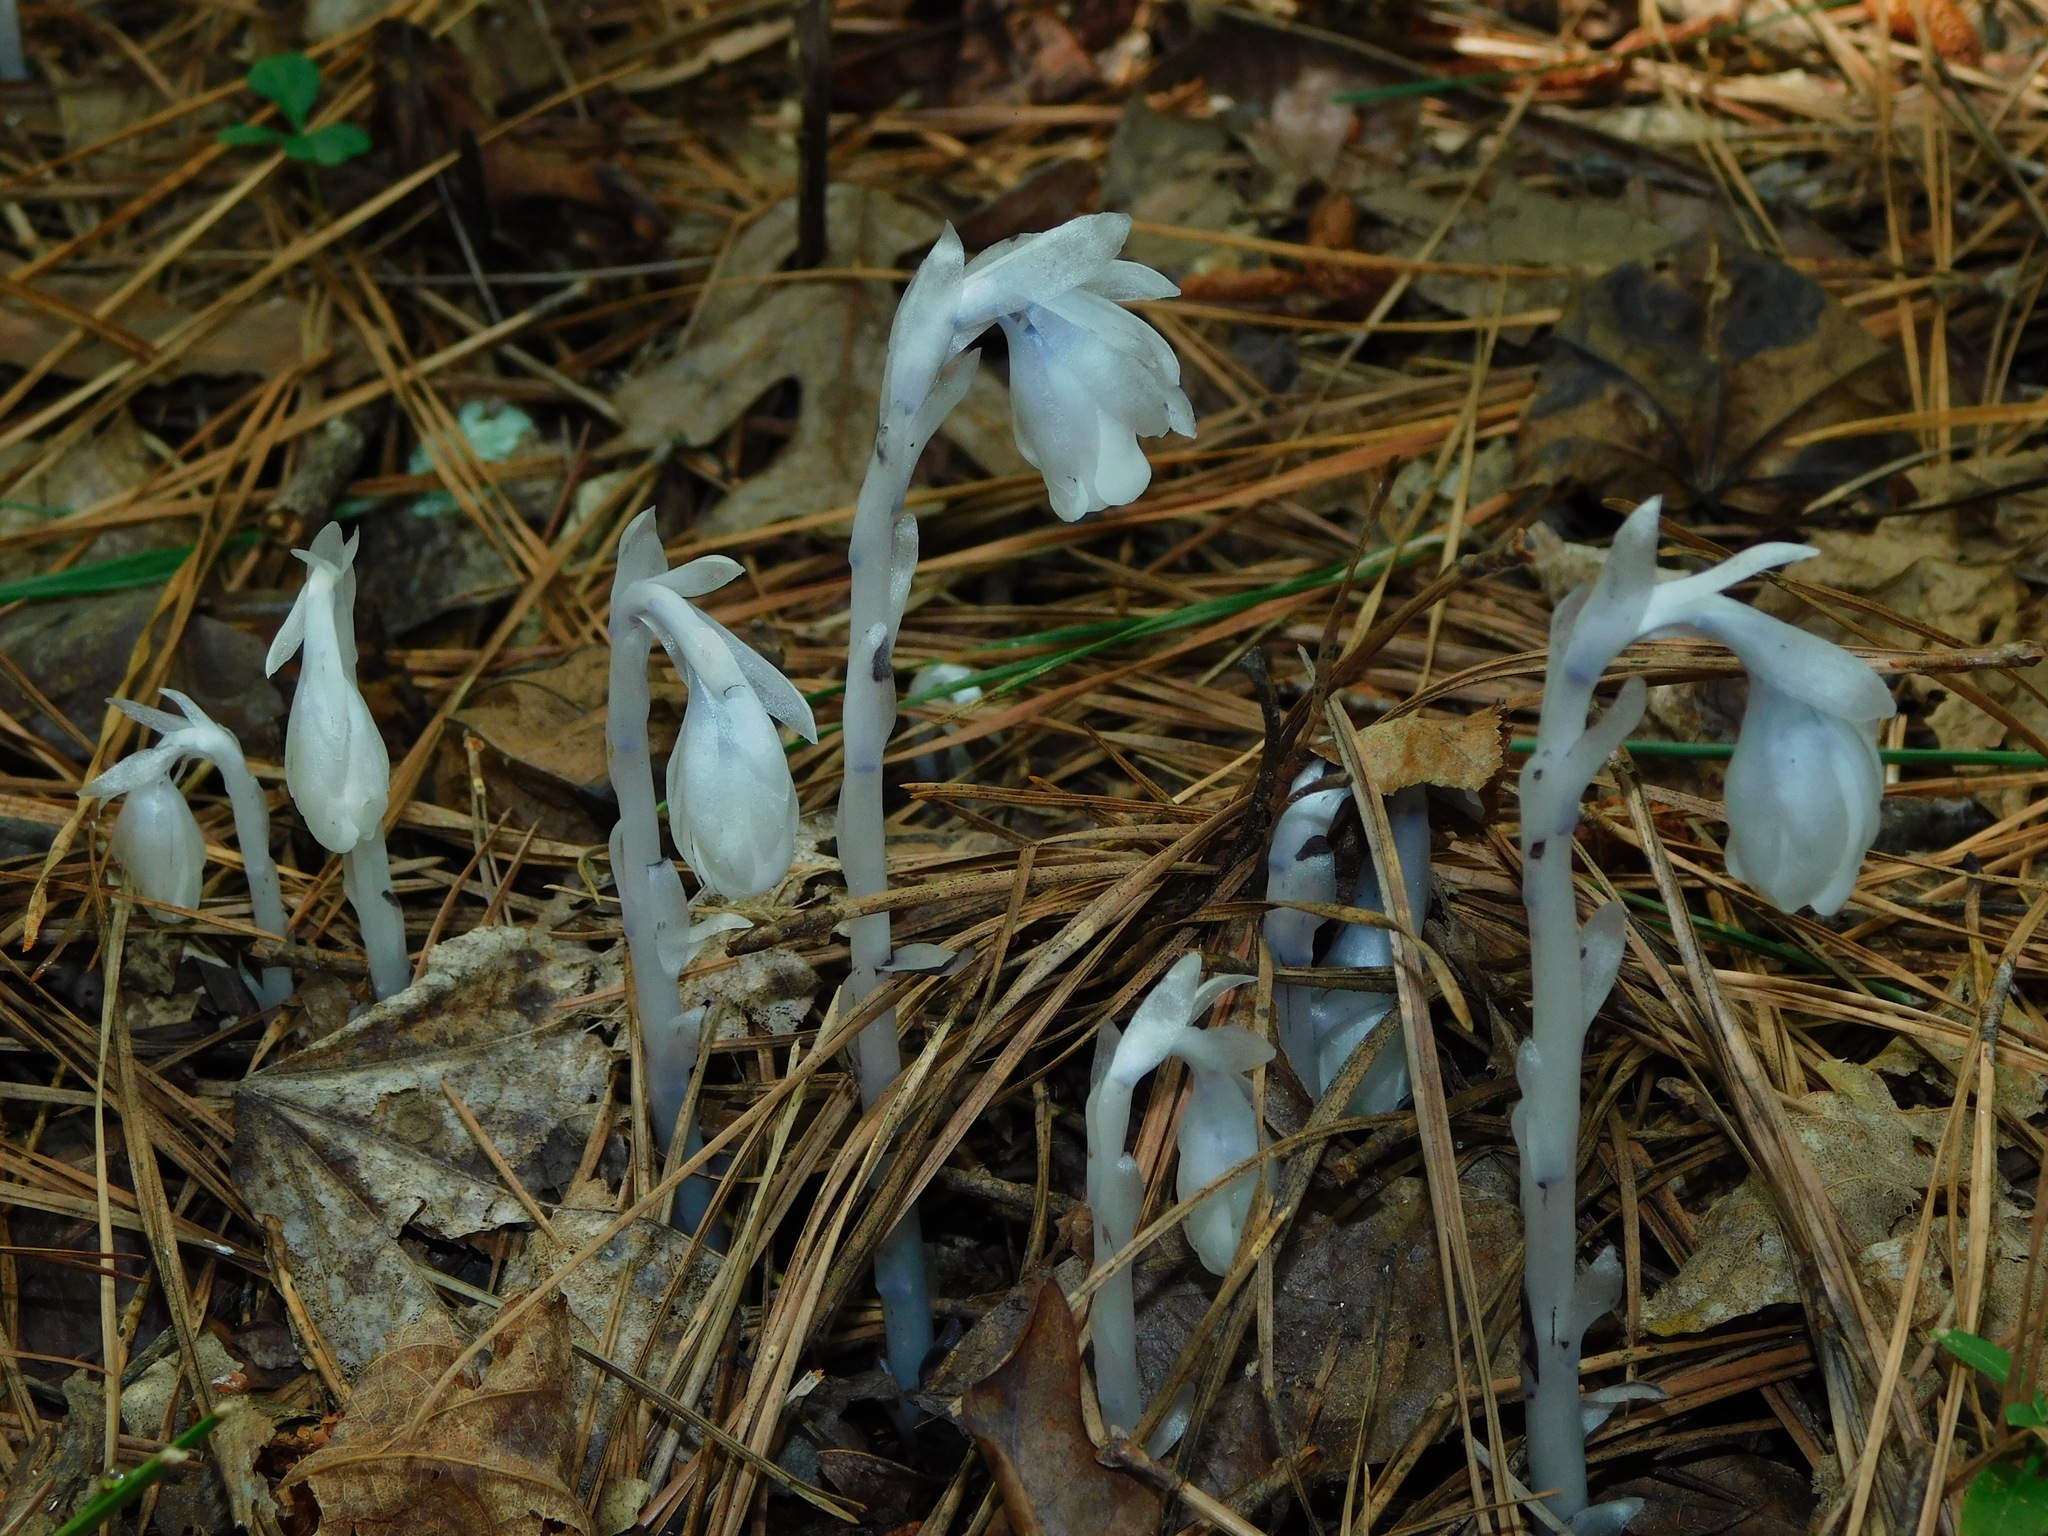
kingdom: Plantae
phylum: Tracheophyta
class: Magnoliopsida
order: Ericales
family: Ericaceae
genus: Monotropa
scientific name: Monotropa uniflora
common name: Convulsion root
